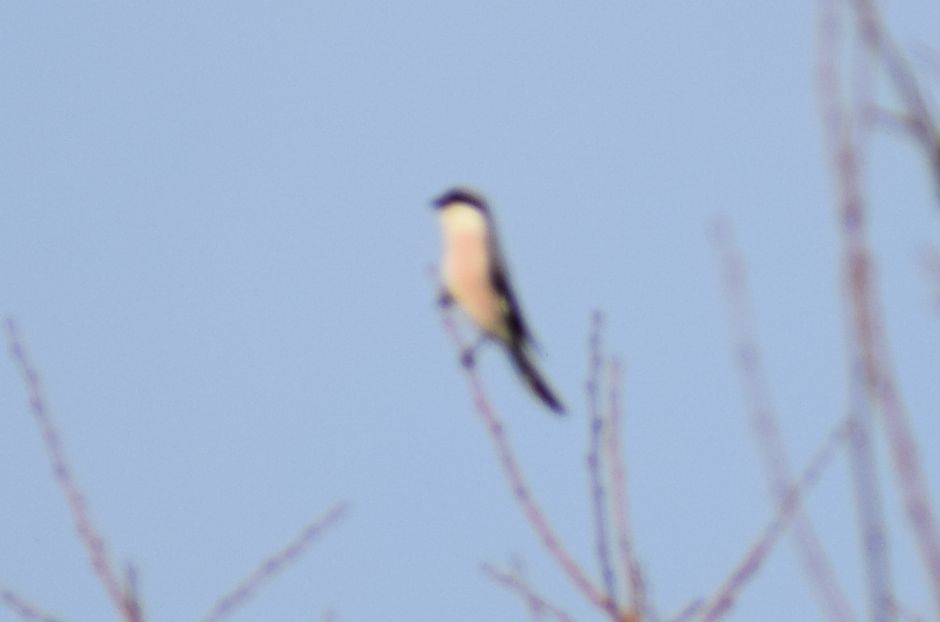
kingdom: Animalia
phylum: Chordata
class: Aves
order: Passeriformes
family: Laniidae
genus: Lanius
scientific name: Lanius minor
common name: Lesser grey shrike
